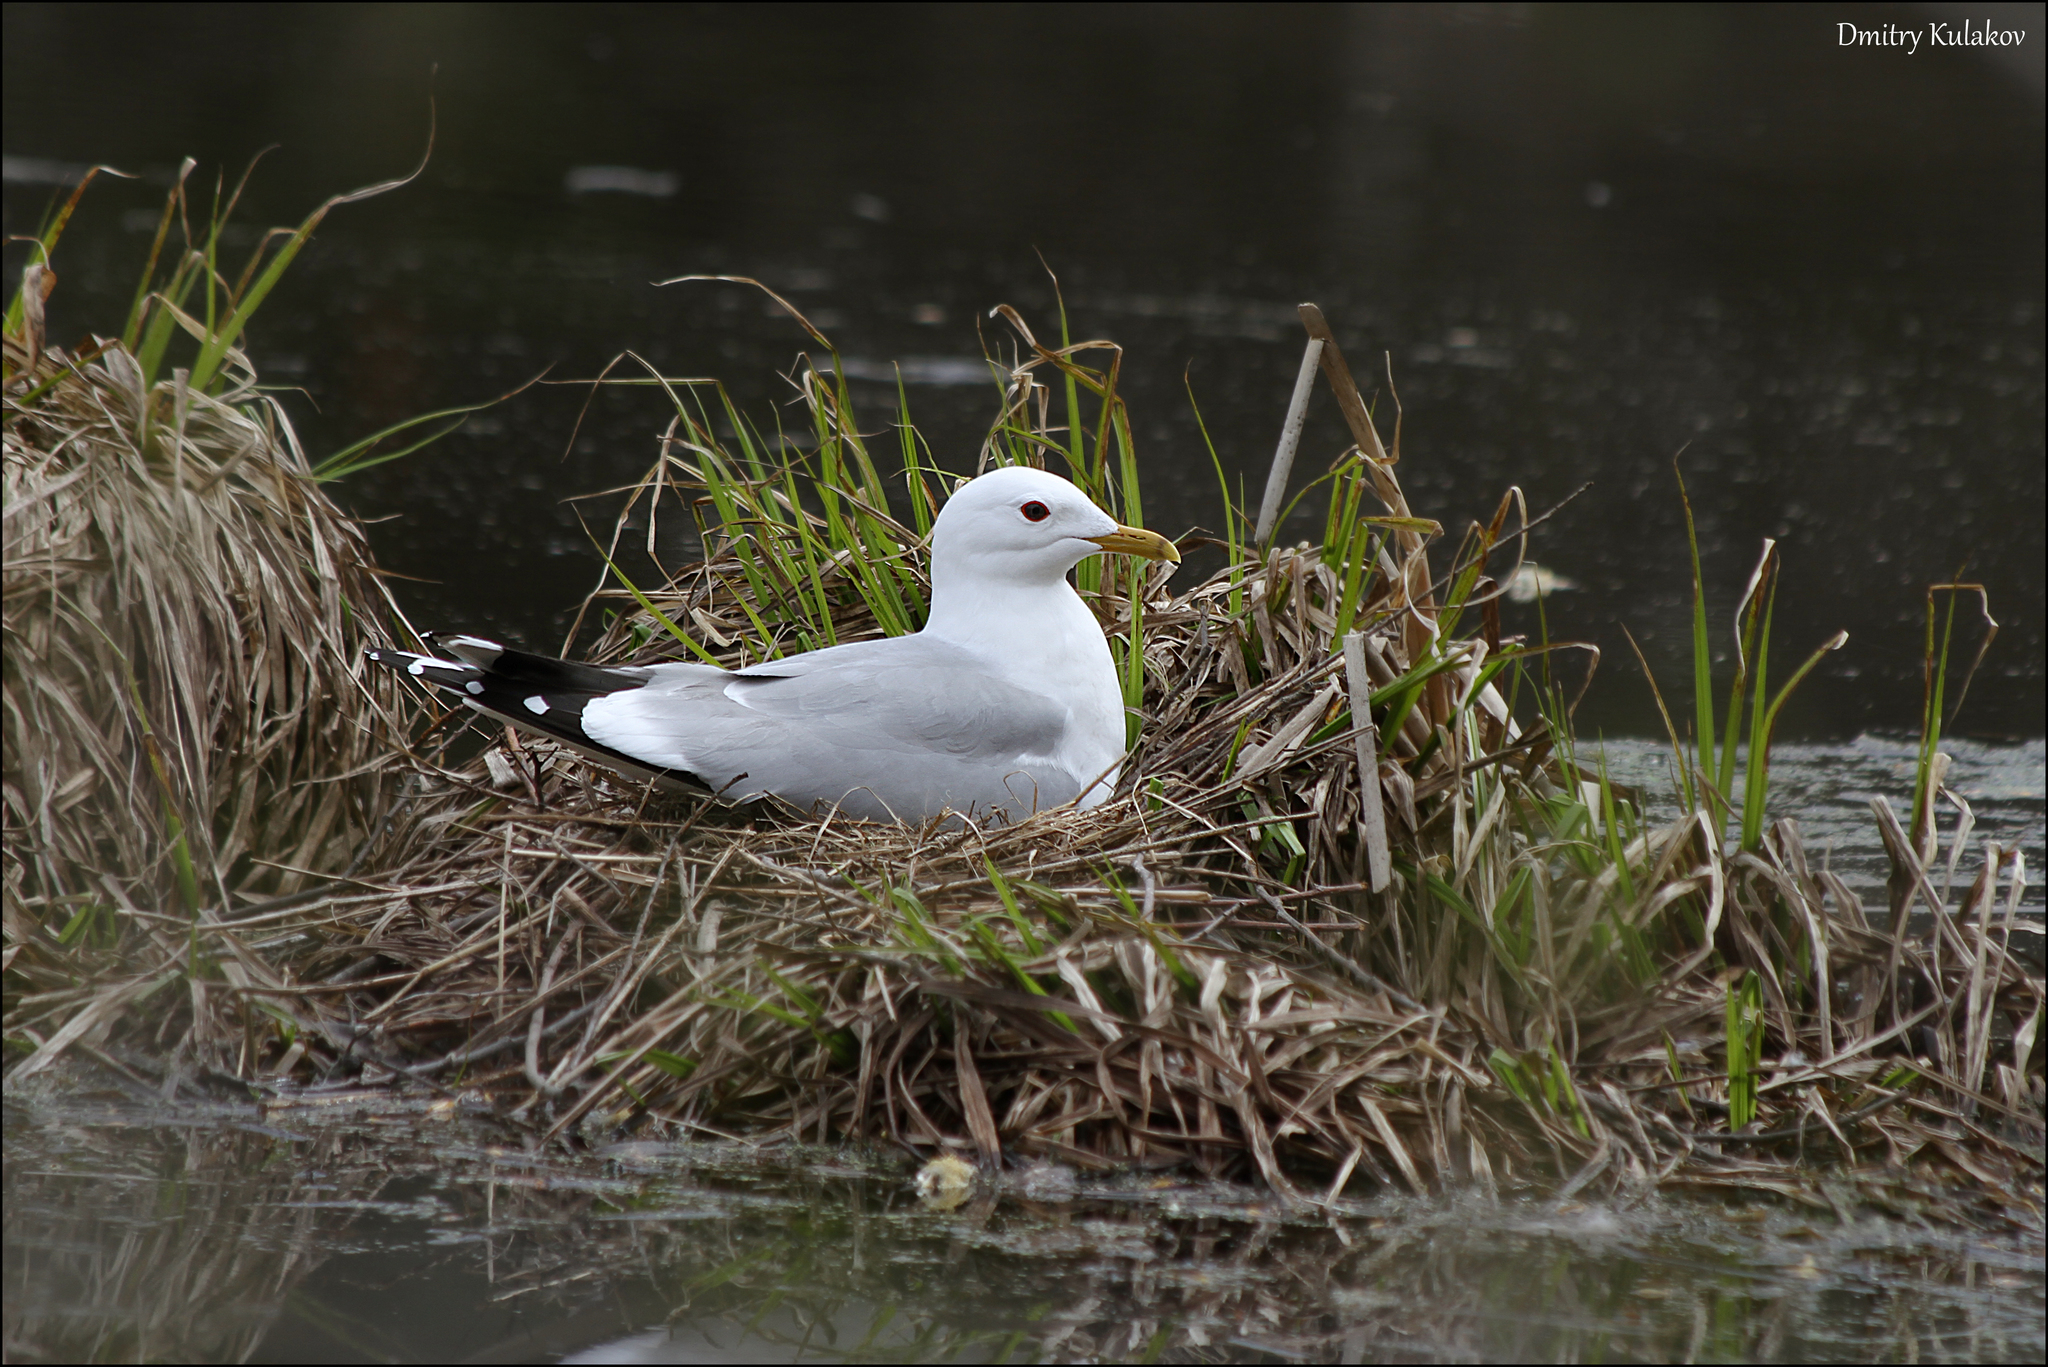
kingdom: Animalia
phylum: Chordata
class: Aves
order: Charadriiformes
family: Laridae
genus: Larus
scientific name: Larus canus
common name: Mew gull
